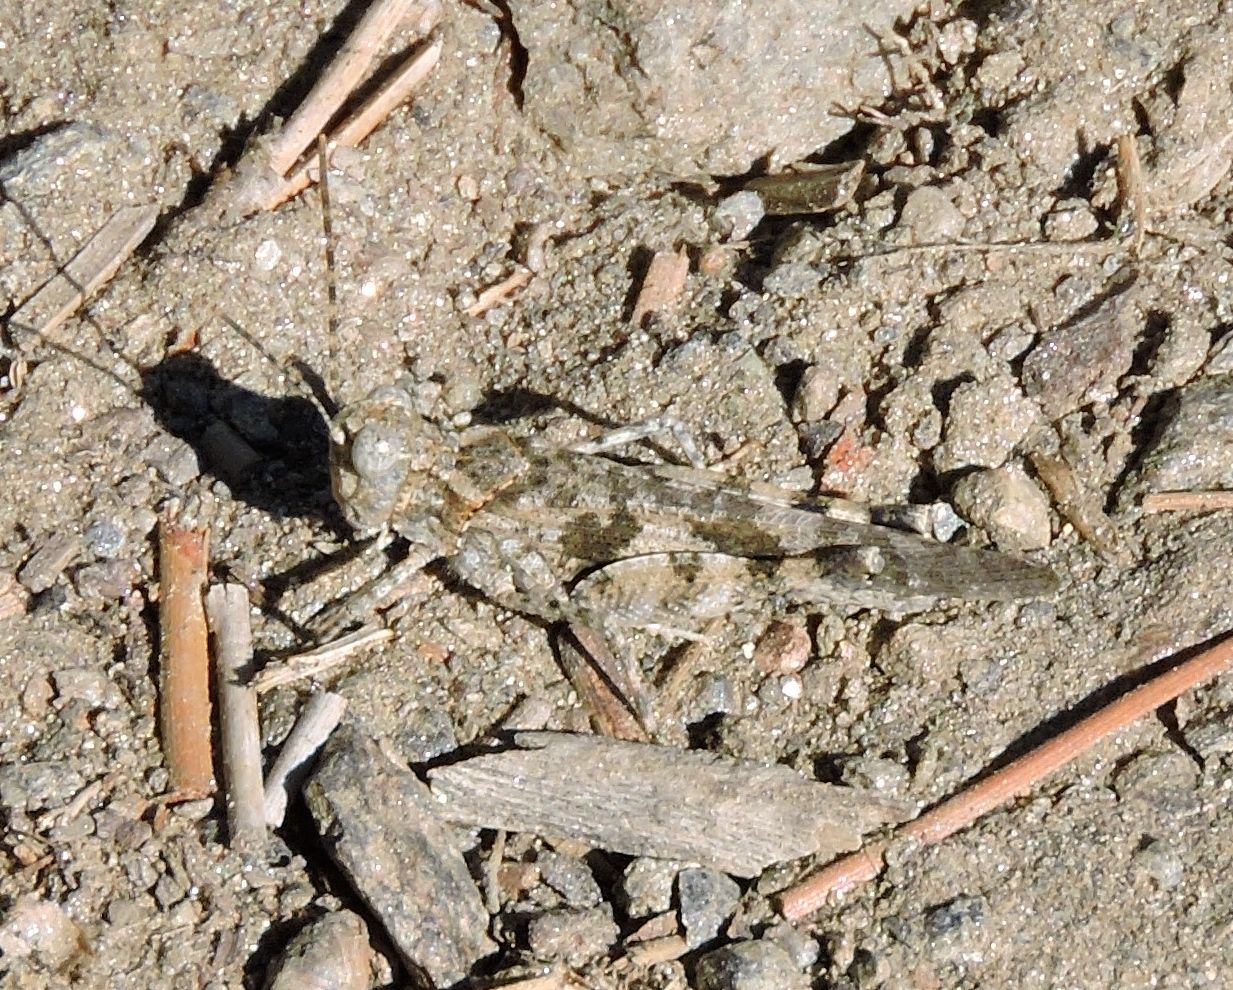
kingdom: Animalia
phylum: Arthropoda
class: Insecta
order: Orthoptera
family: Acrididae
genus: Trimerotropis
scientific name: Trimerotropis pallidipennis
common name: Pallid-winged grasshopper
